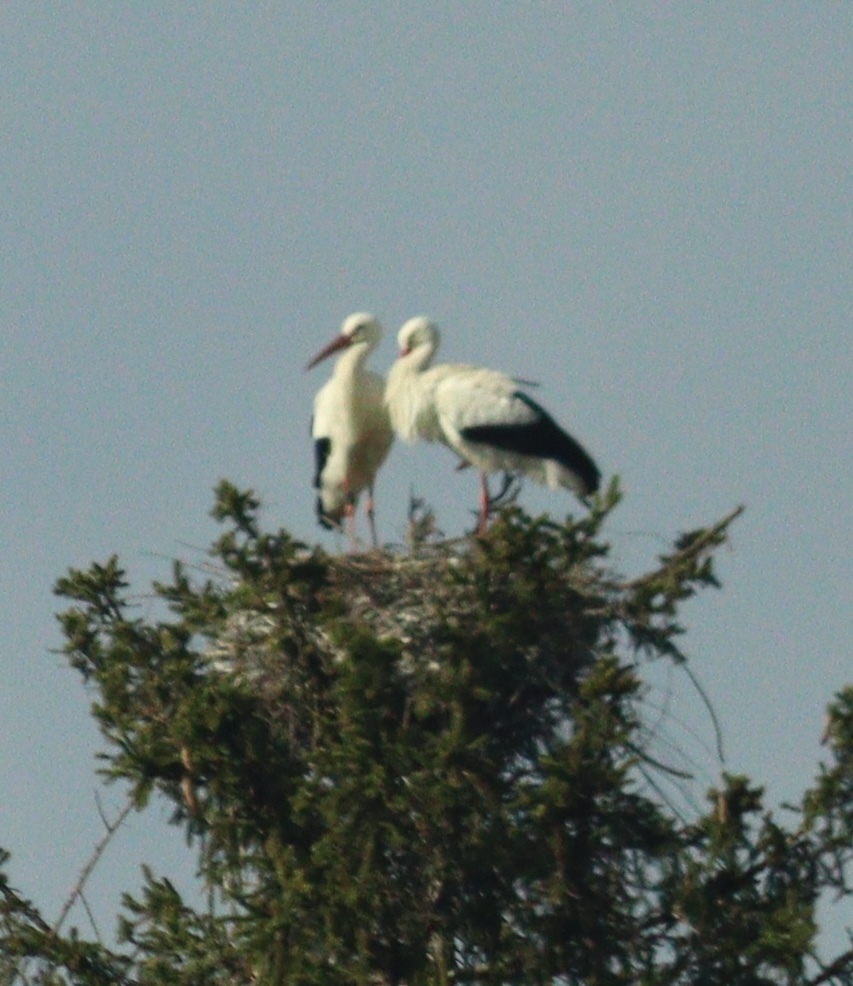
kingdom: Animalia
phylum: Chordata
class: Aves
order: Ciconiiformes
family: Ciconiidae
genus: Ciconia
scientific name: Ciconia ciconia
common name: White stork
